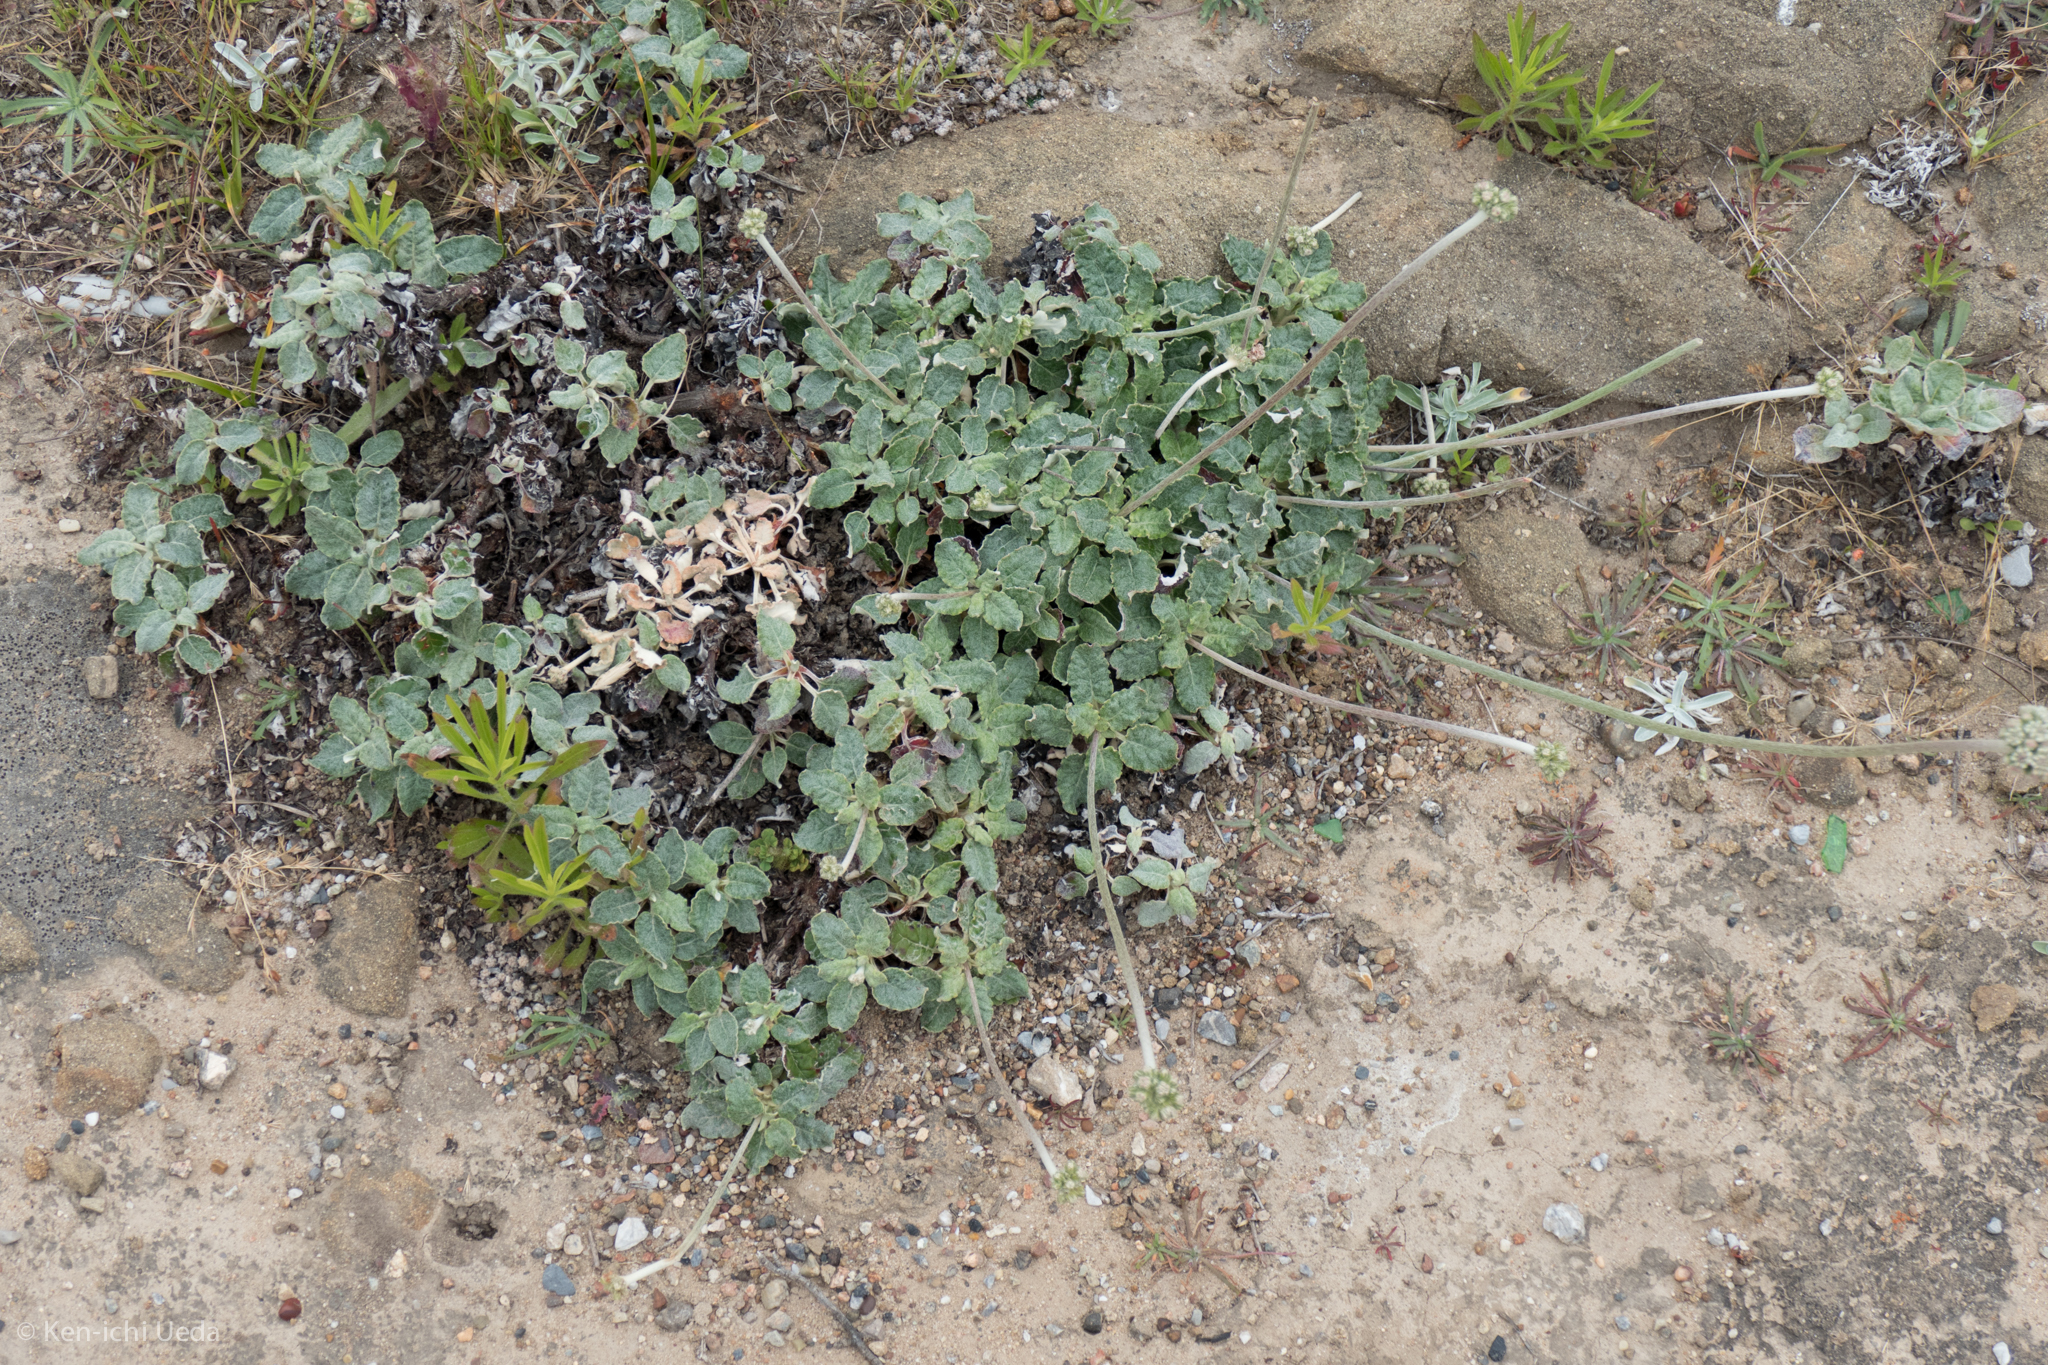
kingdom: Plantae
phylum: Tracheophyta
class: Magnoliopsida
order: Caryophyllales
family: Polygonaceae
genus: Eriogonum
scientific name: Eriogonum latifolium
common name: Seaside wild buckwheat
